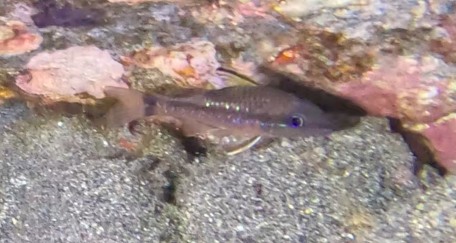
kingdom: Animalia
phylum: Chordata
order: Perciformes
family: Apogonidae
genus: Pristiapogon
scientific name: Pristiapogon kallopterus
